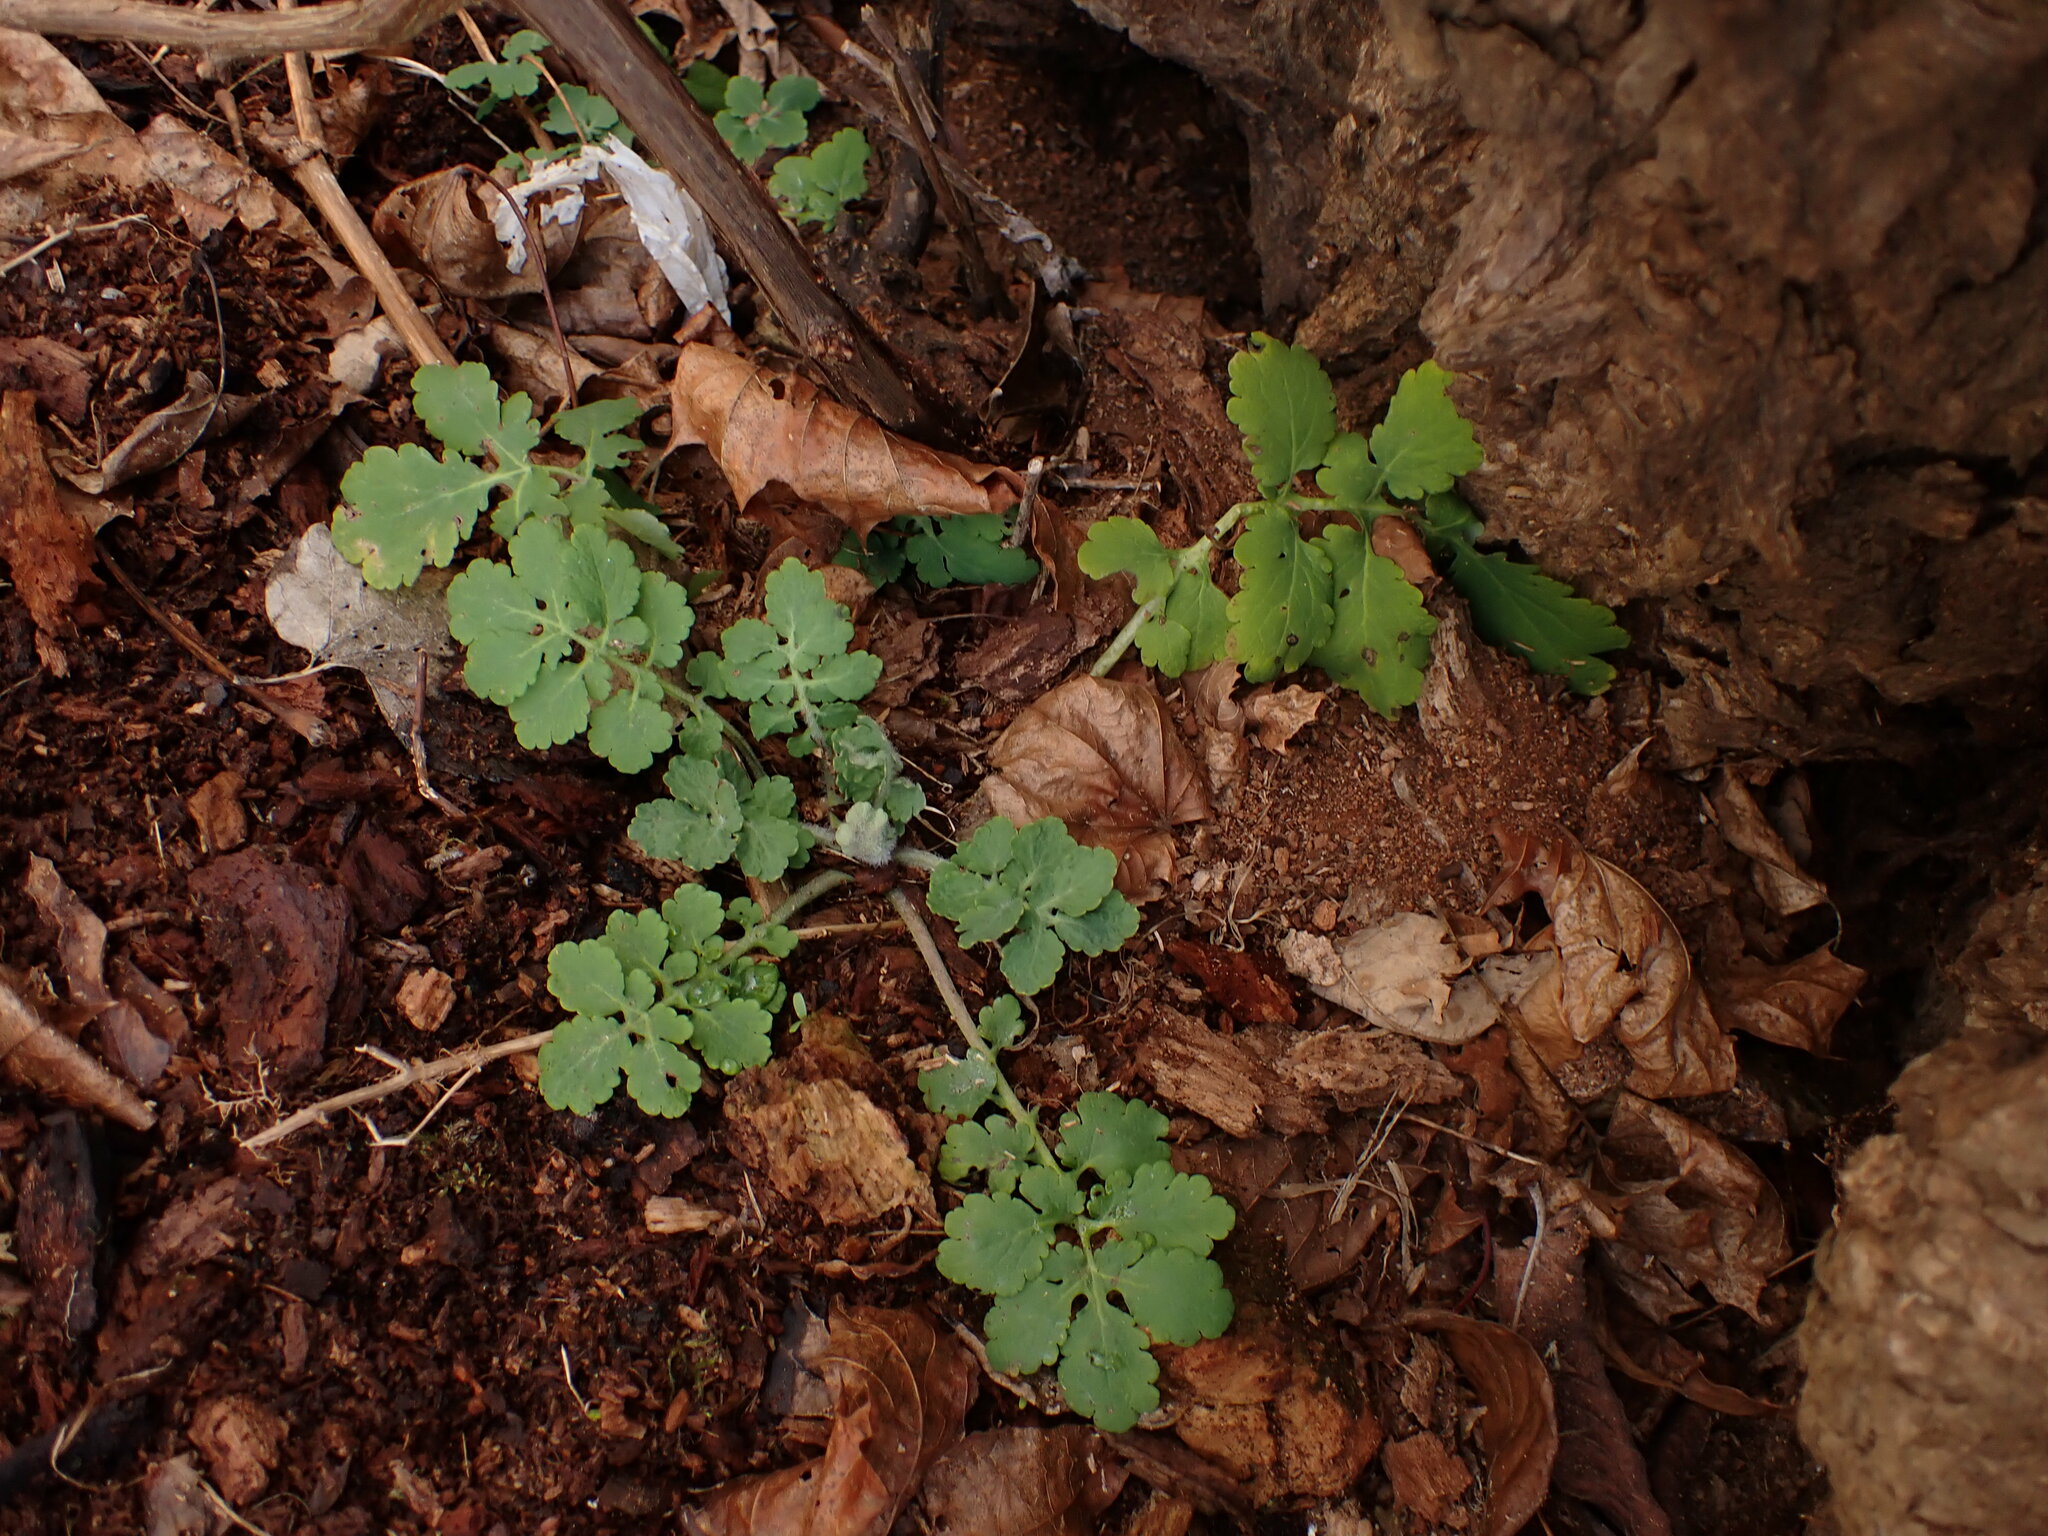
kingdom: Plantae
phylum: Tracheophyta
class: Magnoliopsida
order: Ranunculales
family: Papaveraceae
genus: Chelidonium
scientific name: Chelidonium majus
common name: Greater celandine
